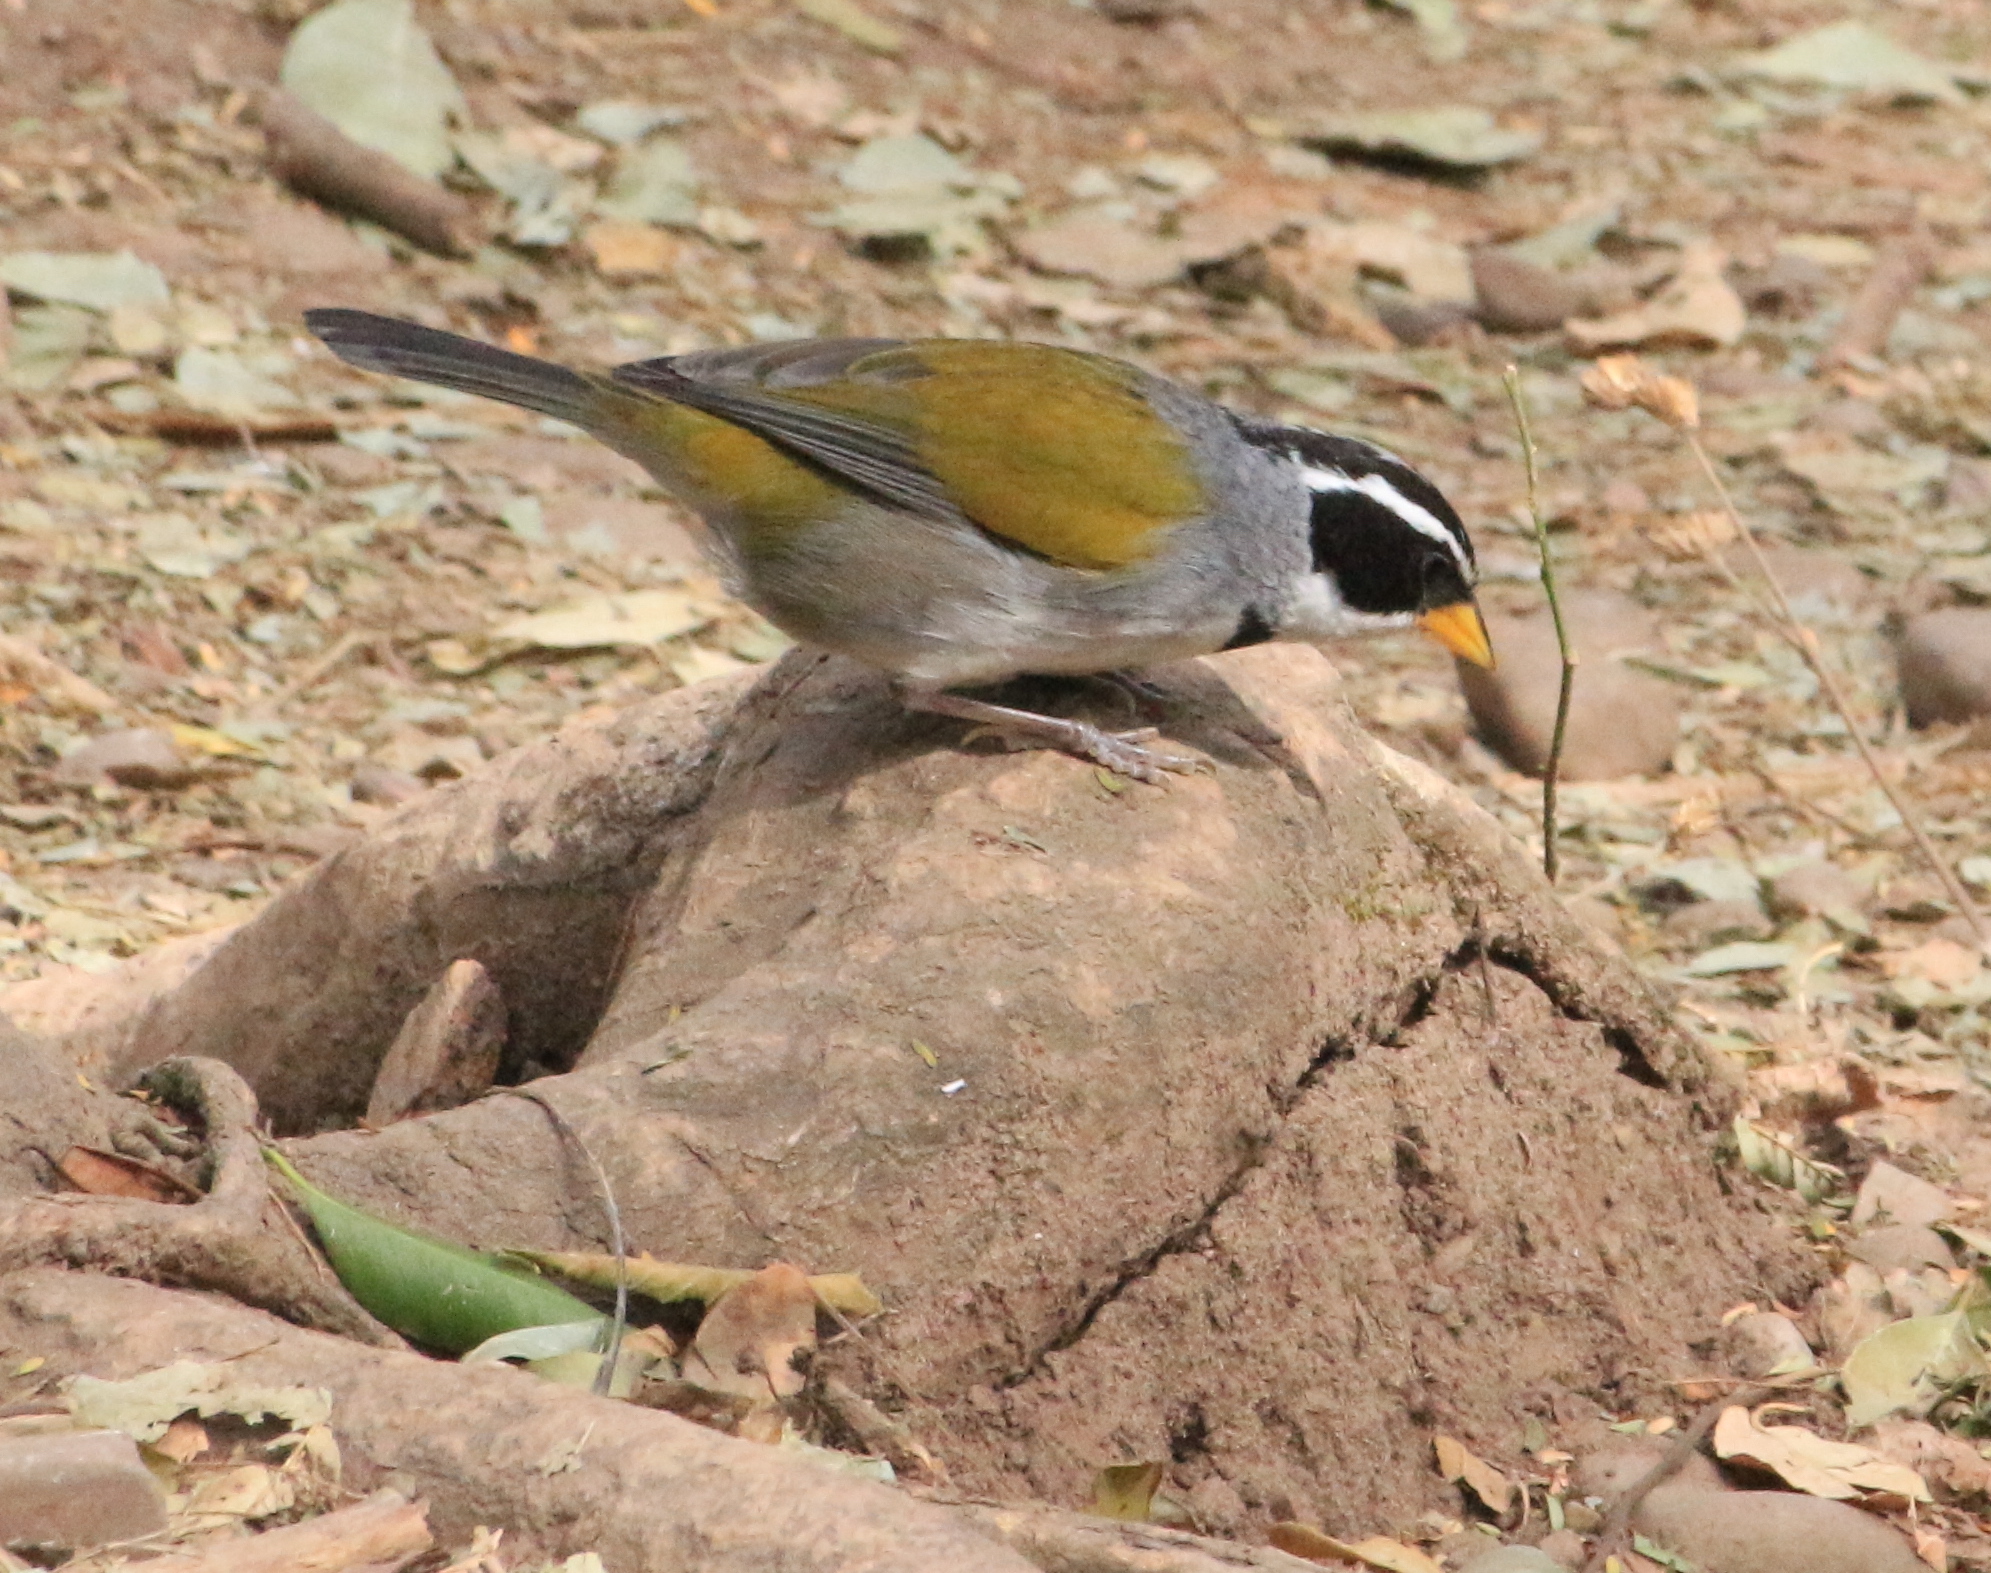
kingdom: Animalia
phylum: Chordata
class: Aves
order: Passeriformes
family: Passerellidae
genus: Arremon
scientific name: Arremon dorbignii
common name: Moss-backed sparrow
